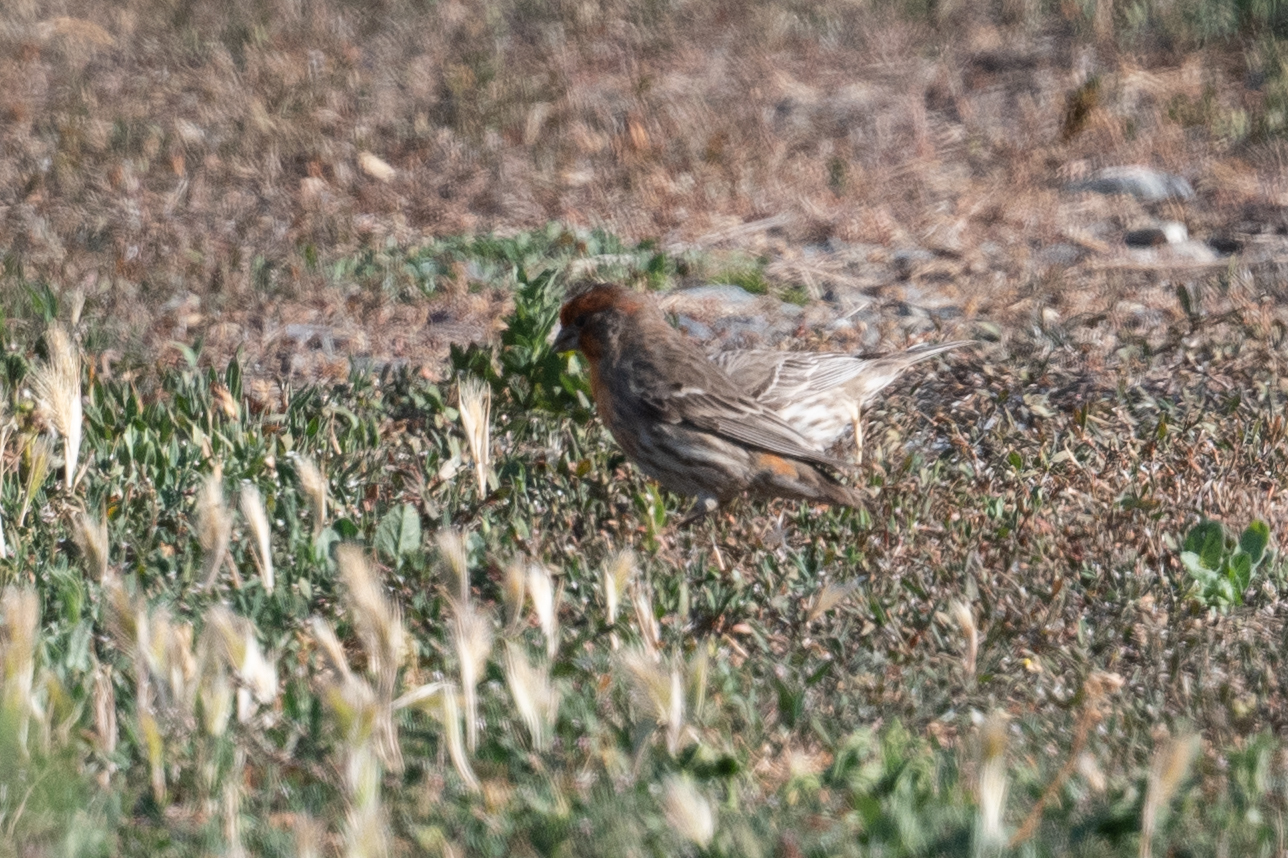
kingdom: Animalia
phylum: Chordata
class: Aves
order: Passeriformes
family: Fringillidae
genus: Haemorhous
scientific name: Haemorhous mexicanus
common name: House finch
